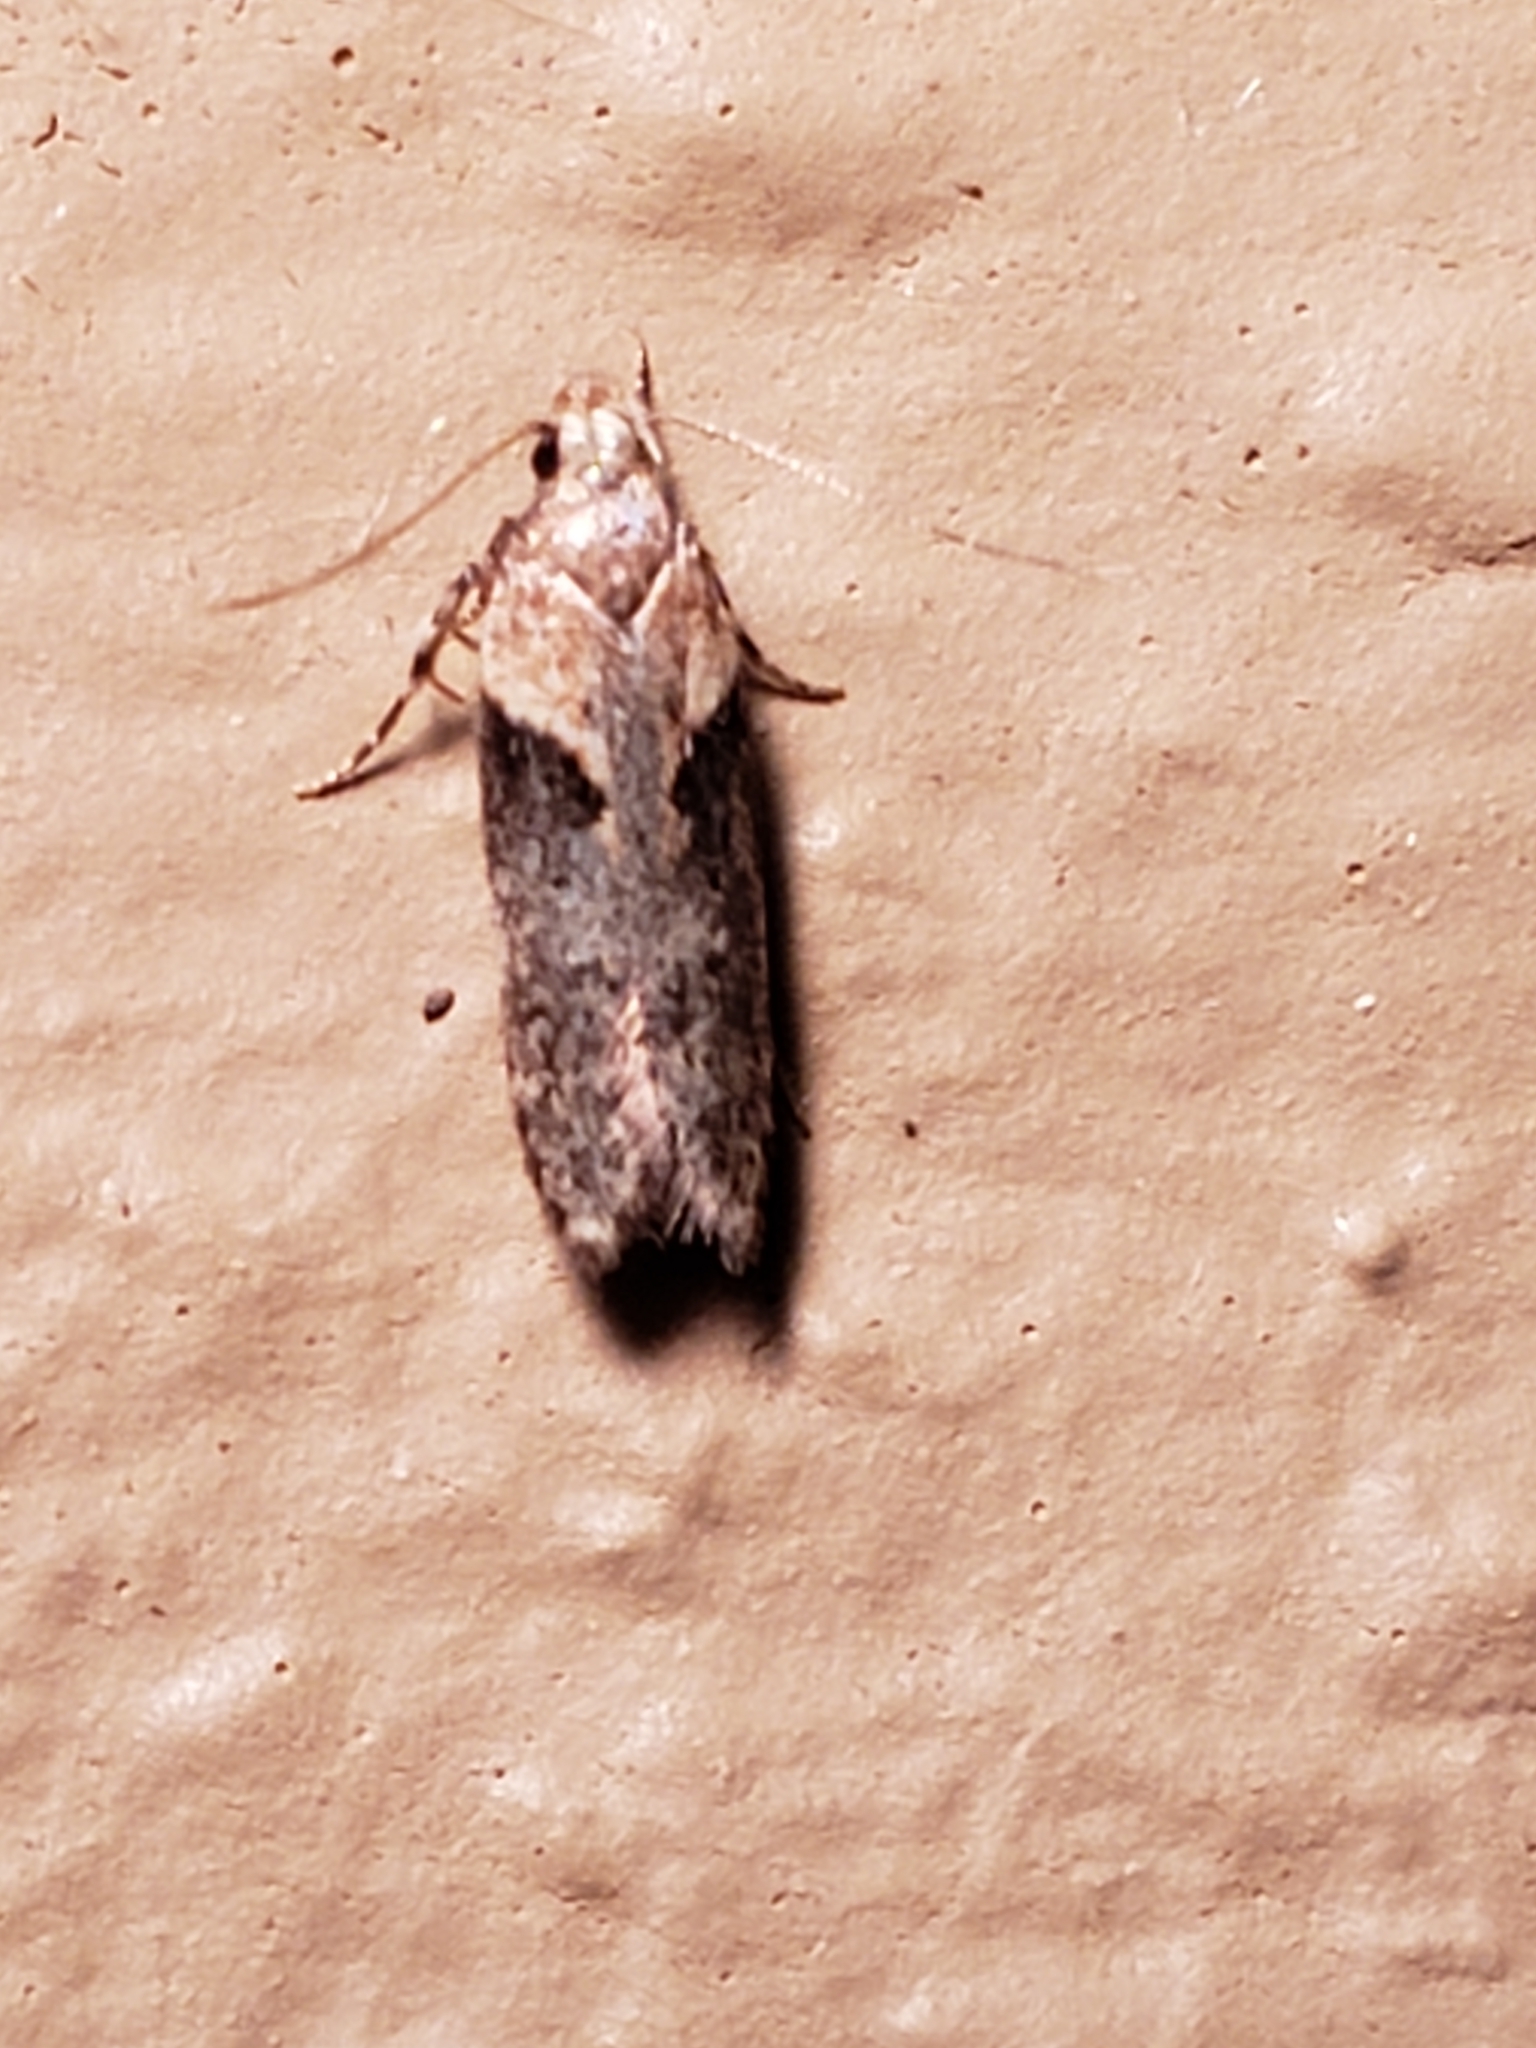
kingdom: Animalia
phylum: Arthropoda
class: Insecta
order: Lepidoptera
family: Gelechiidae
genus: Chionodes
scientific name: Chionodes mediofuscella
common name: Black-smudged chionodes moth
